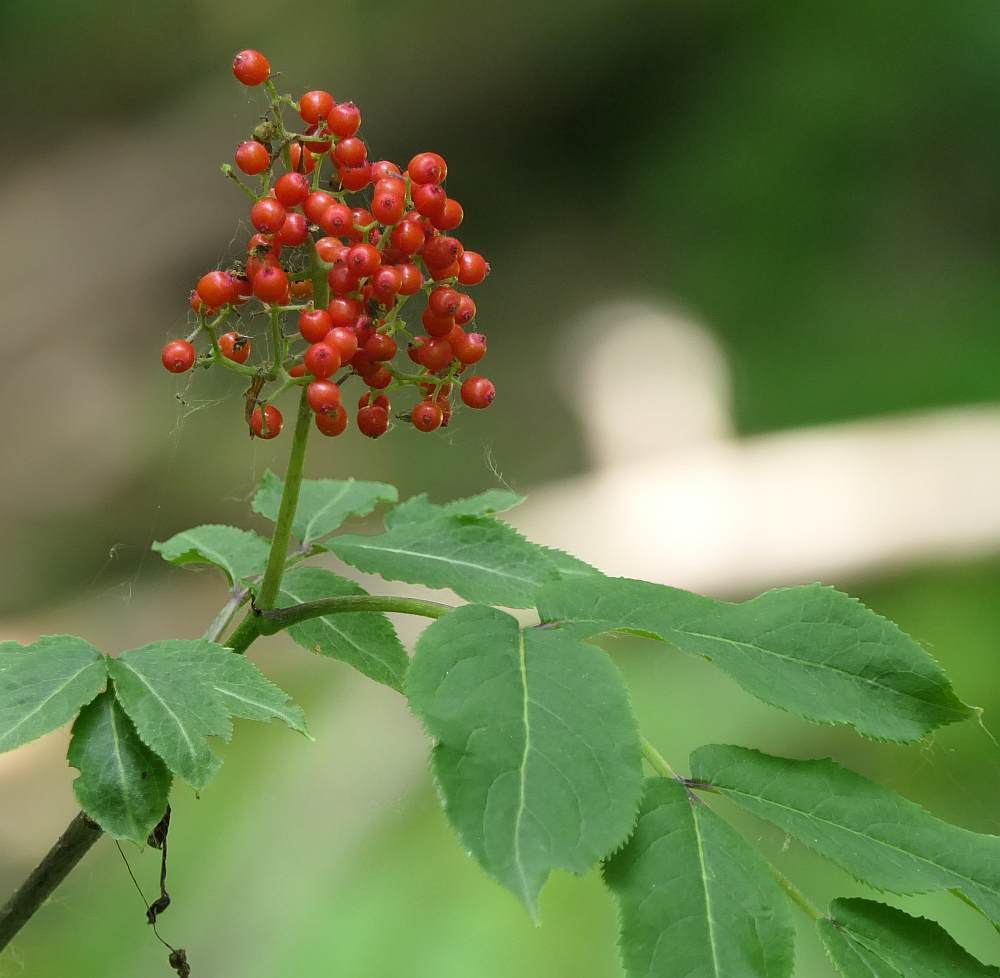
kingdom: Plantae
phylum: Tracheophyta
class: Magnoliopsida
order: Dipsacales
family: Viburnaceae
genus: Sambucus
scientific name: Sambucus racemosa
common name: Red-berried elder
